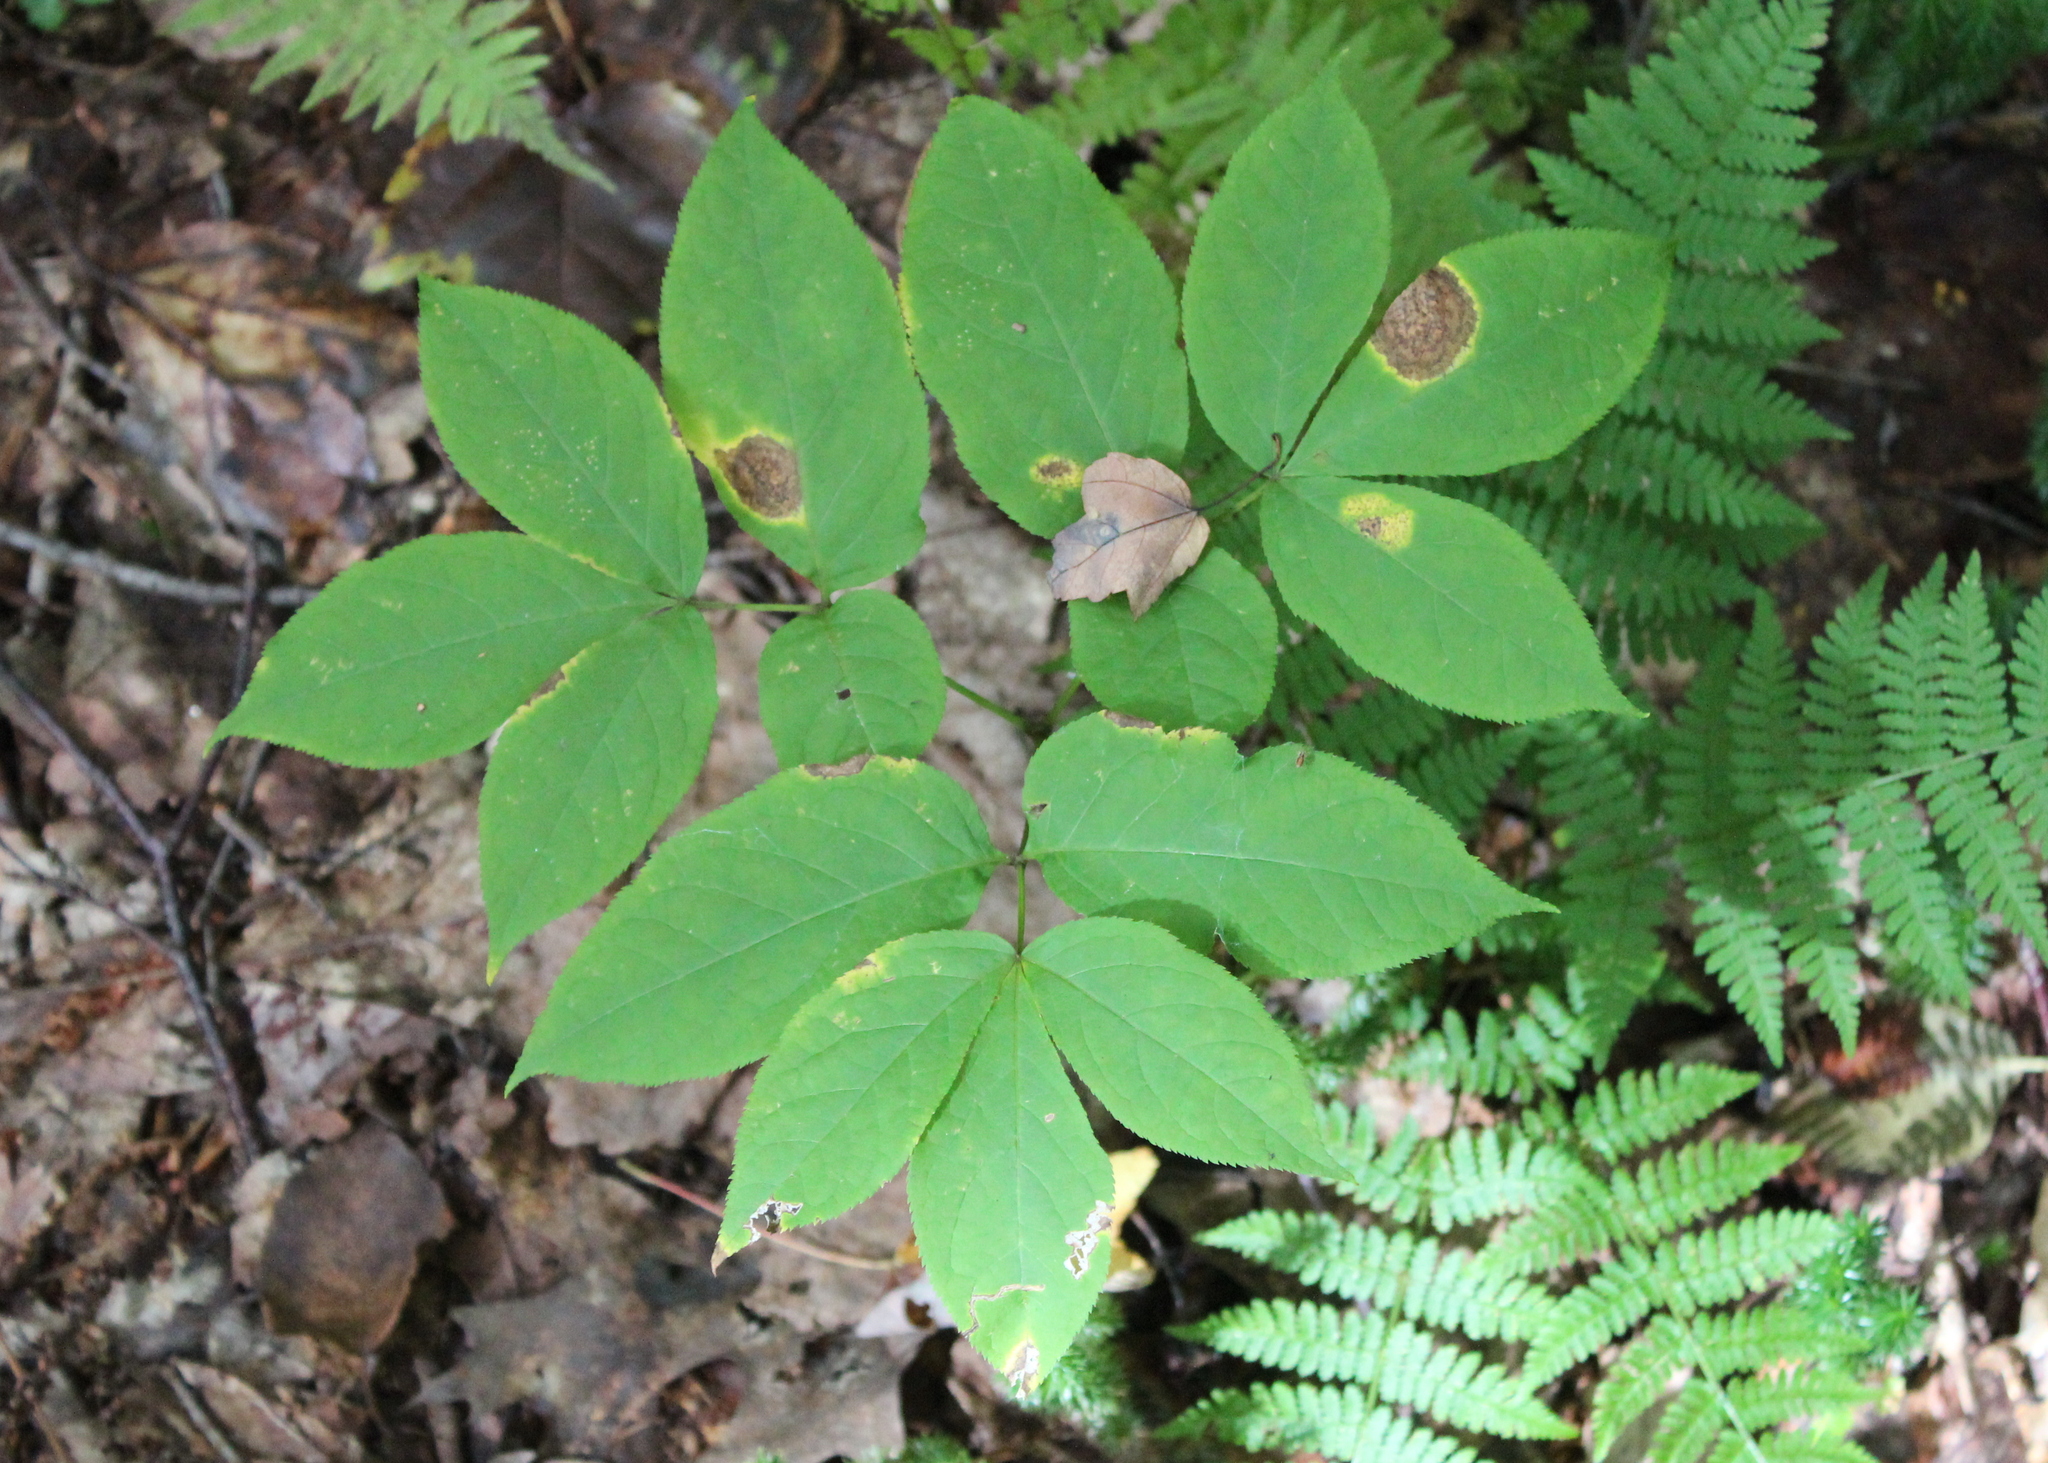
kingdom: Plantae
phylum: Tracheophyta
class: Magnoliopsida
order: Apiales
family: Araliaceae
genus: Aralia
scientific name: Aralia nudicaulis
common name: Wild sarsaparilla
